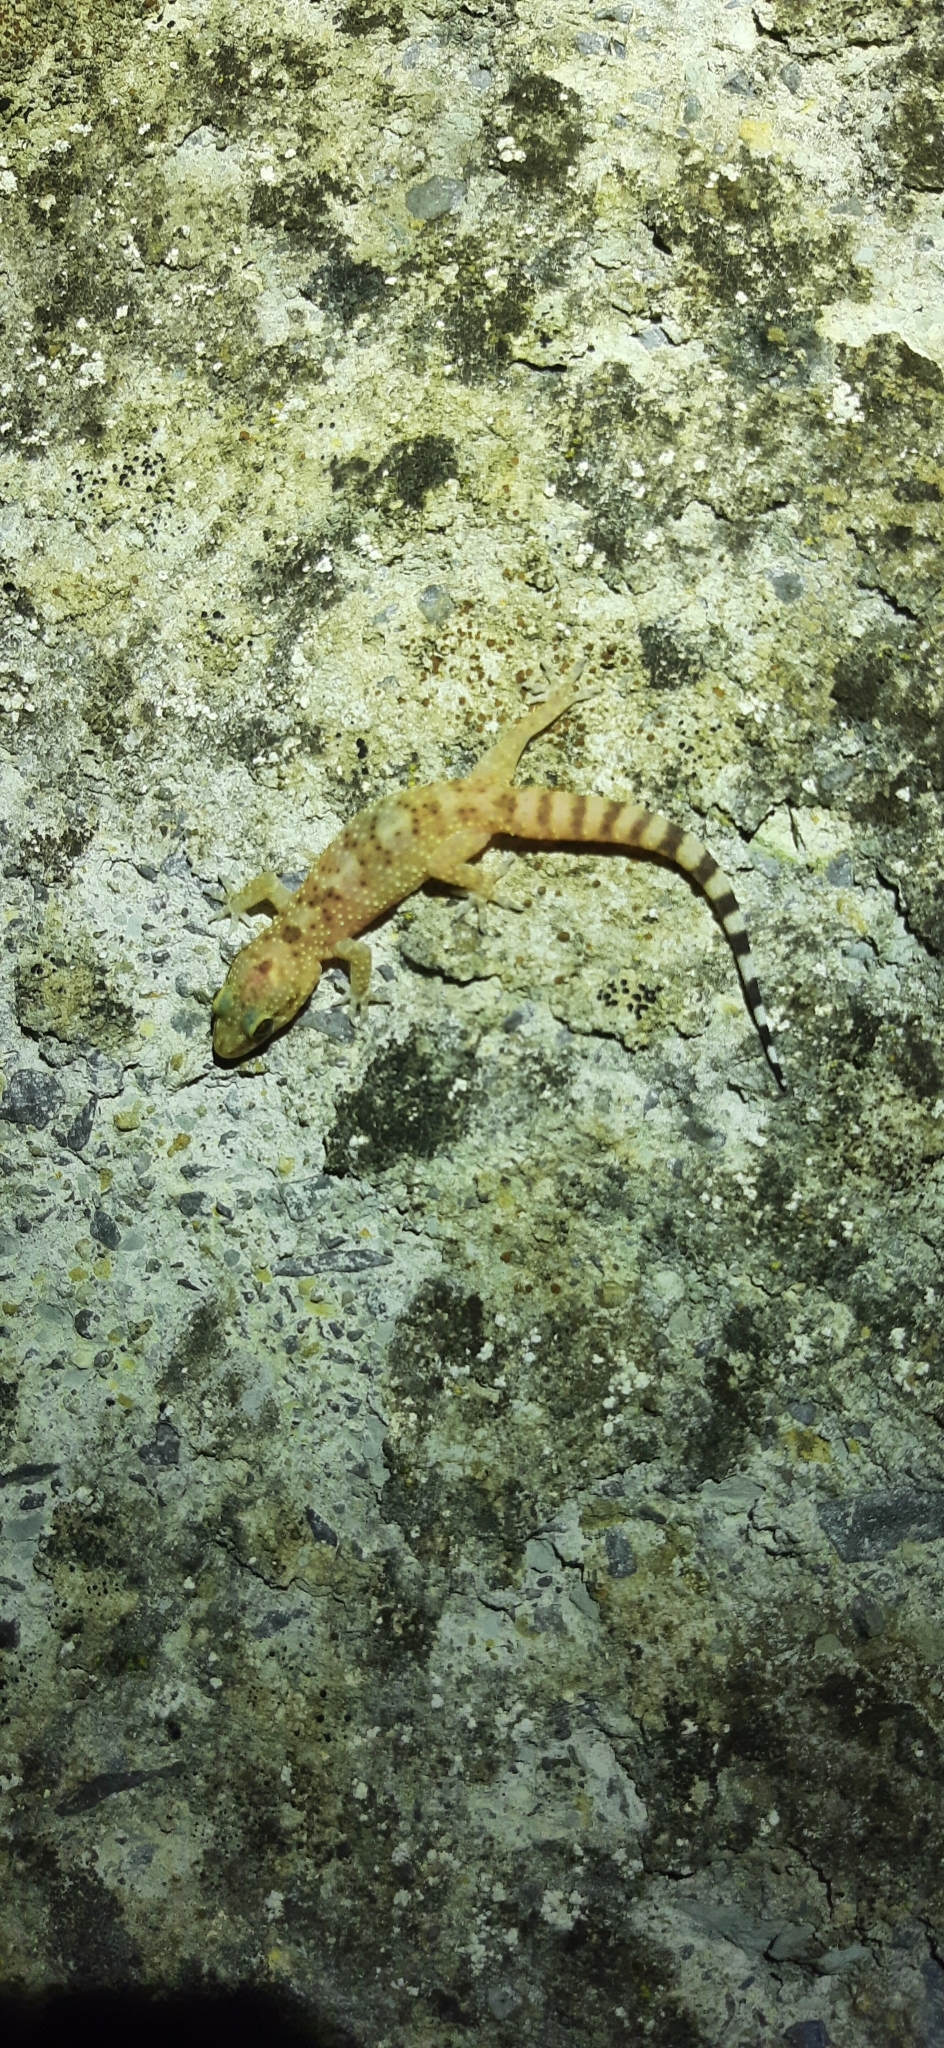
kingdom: Animalia
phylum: Chordata
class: Squamata
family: Gekkonidae
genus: Hemidactylus
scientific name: Hemidactylus turcicus
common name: Turkish gecko
